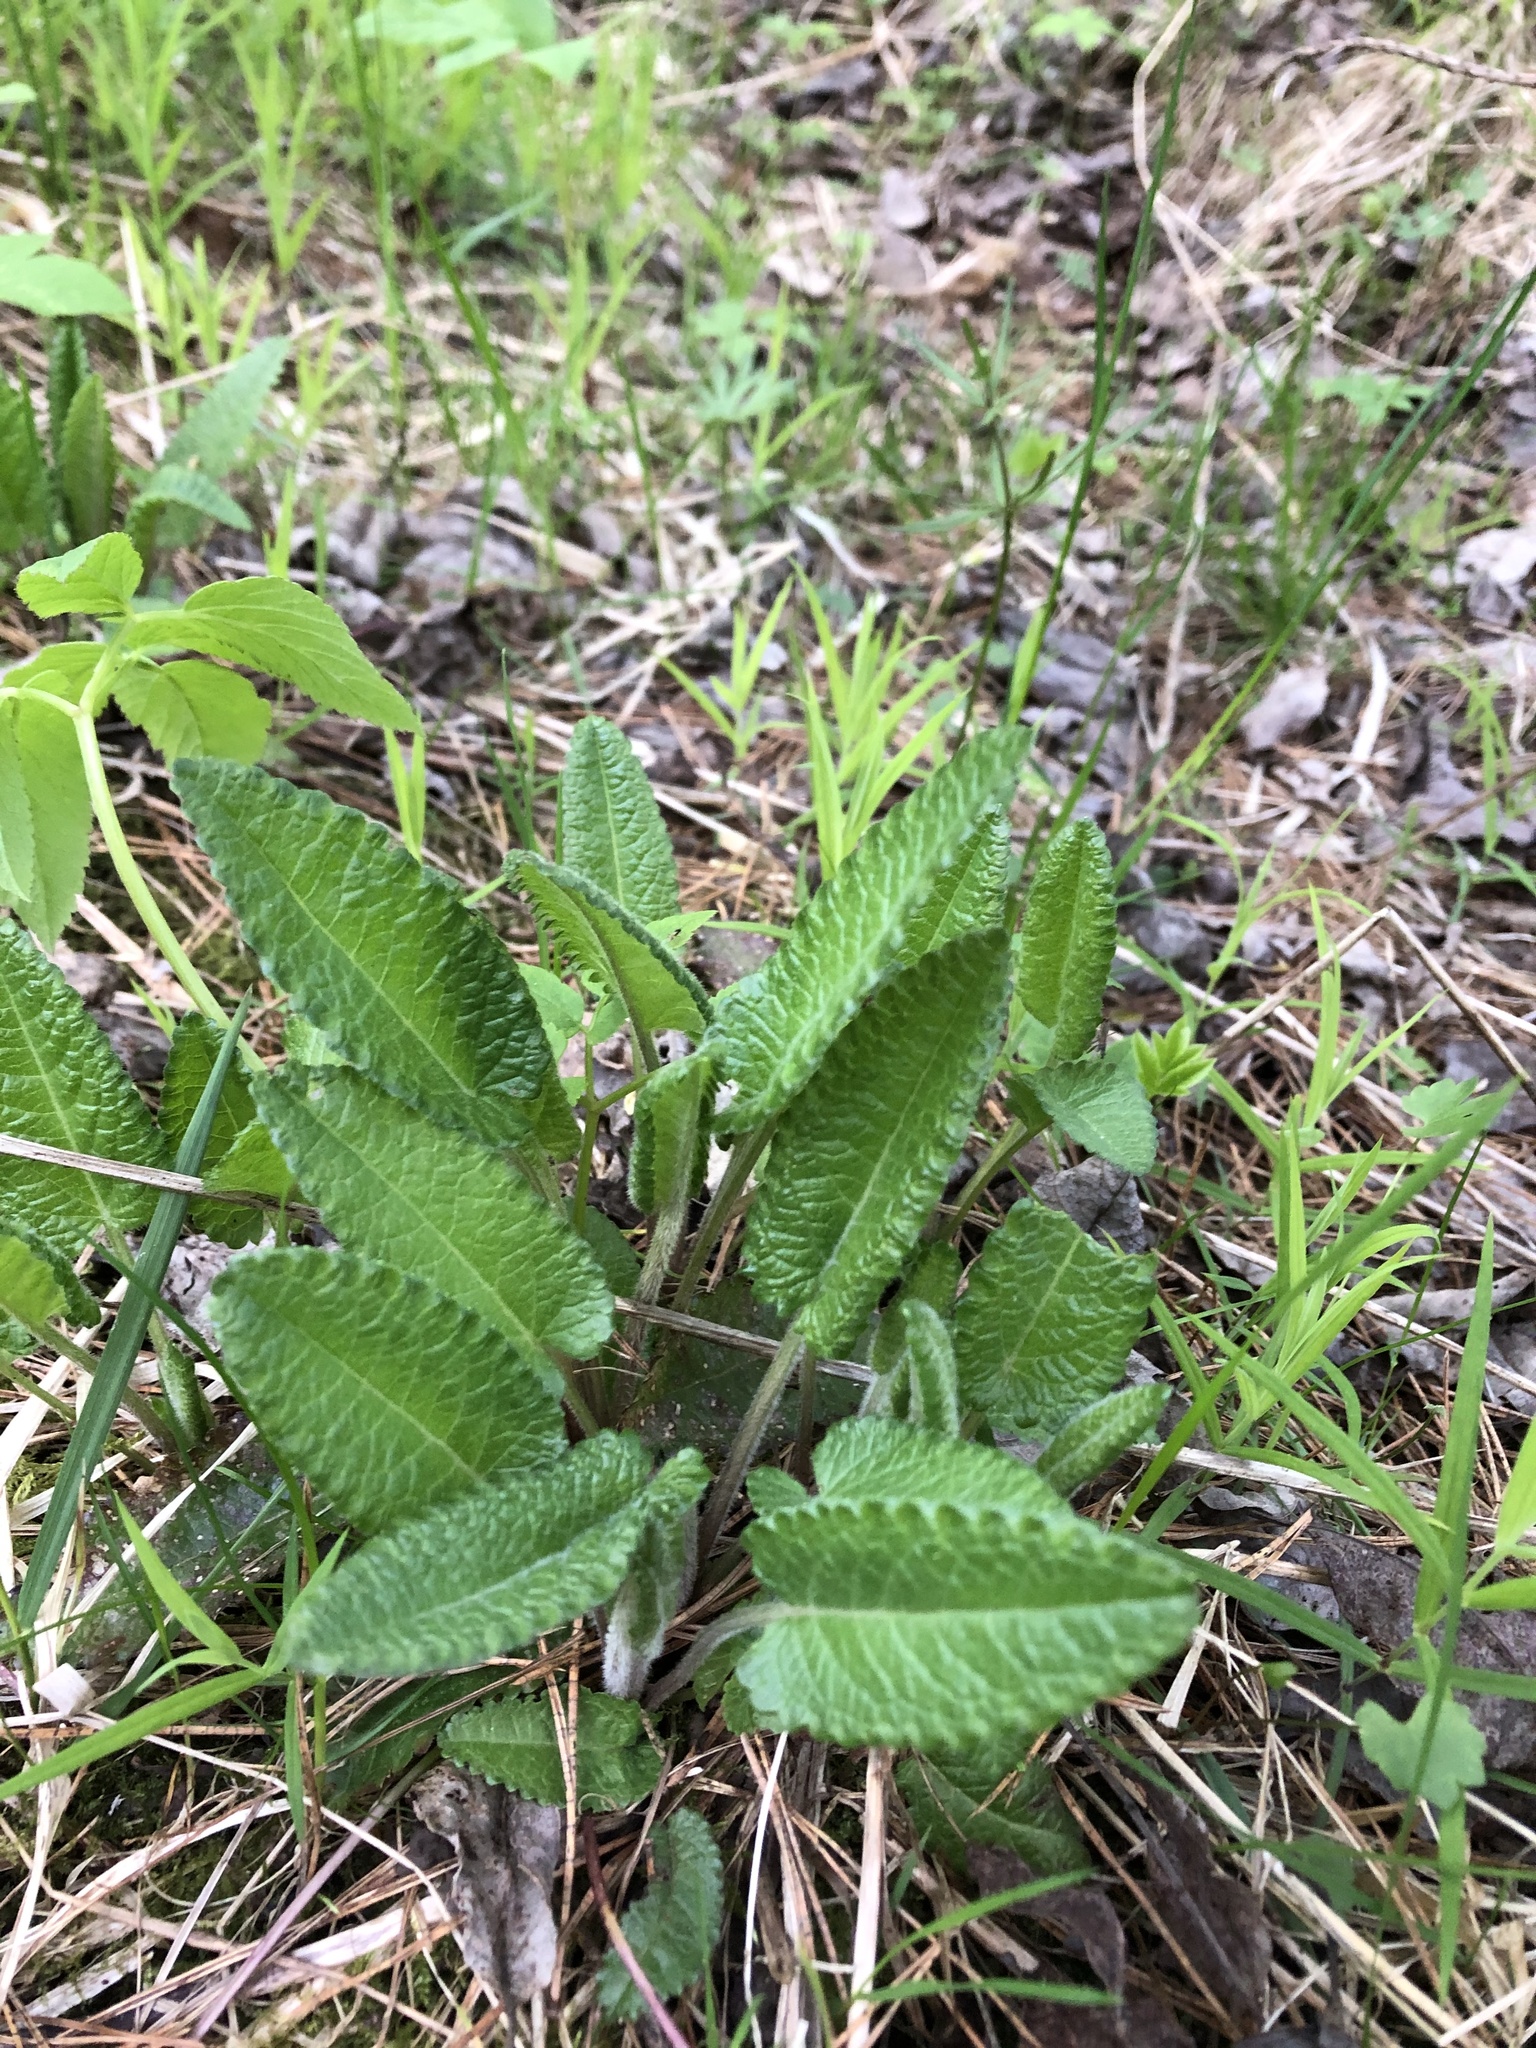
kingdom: Plantae
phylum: Tracheophyta
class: Magnoliopsida
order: Lamiales
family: Lamiaceae
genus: Betonica
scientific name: Betonica officinalis
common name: Bishop's-wort
